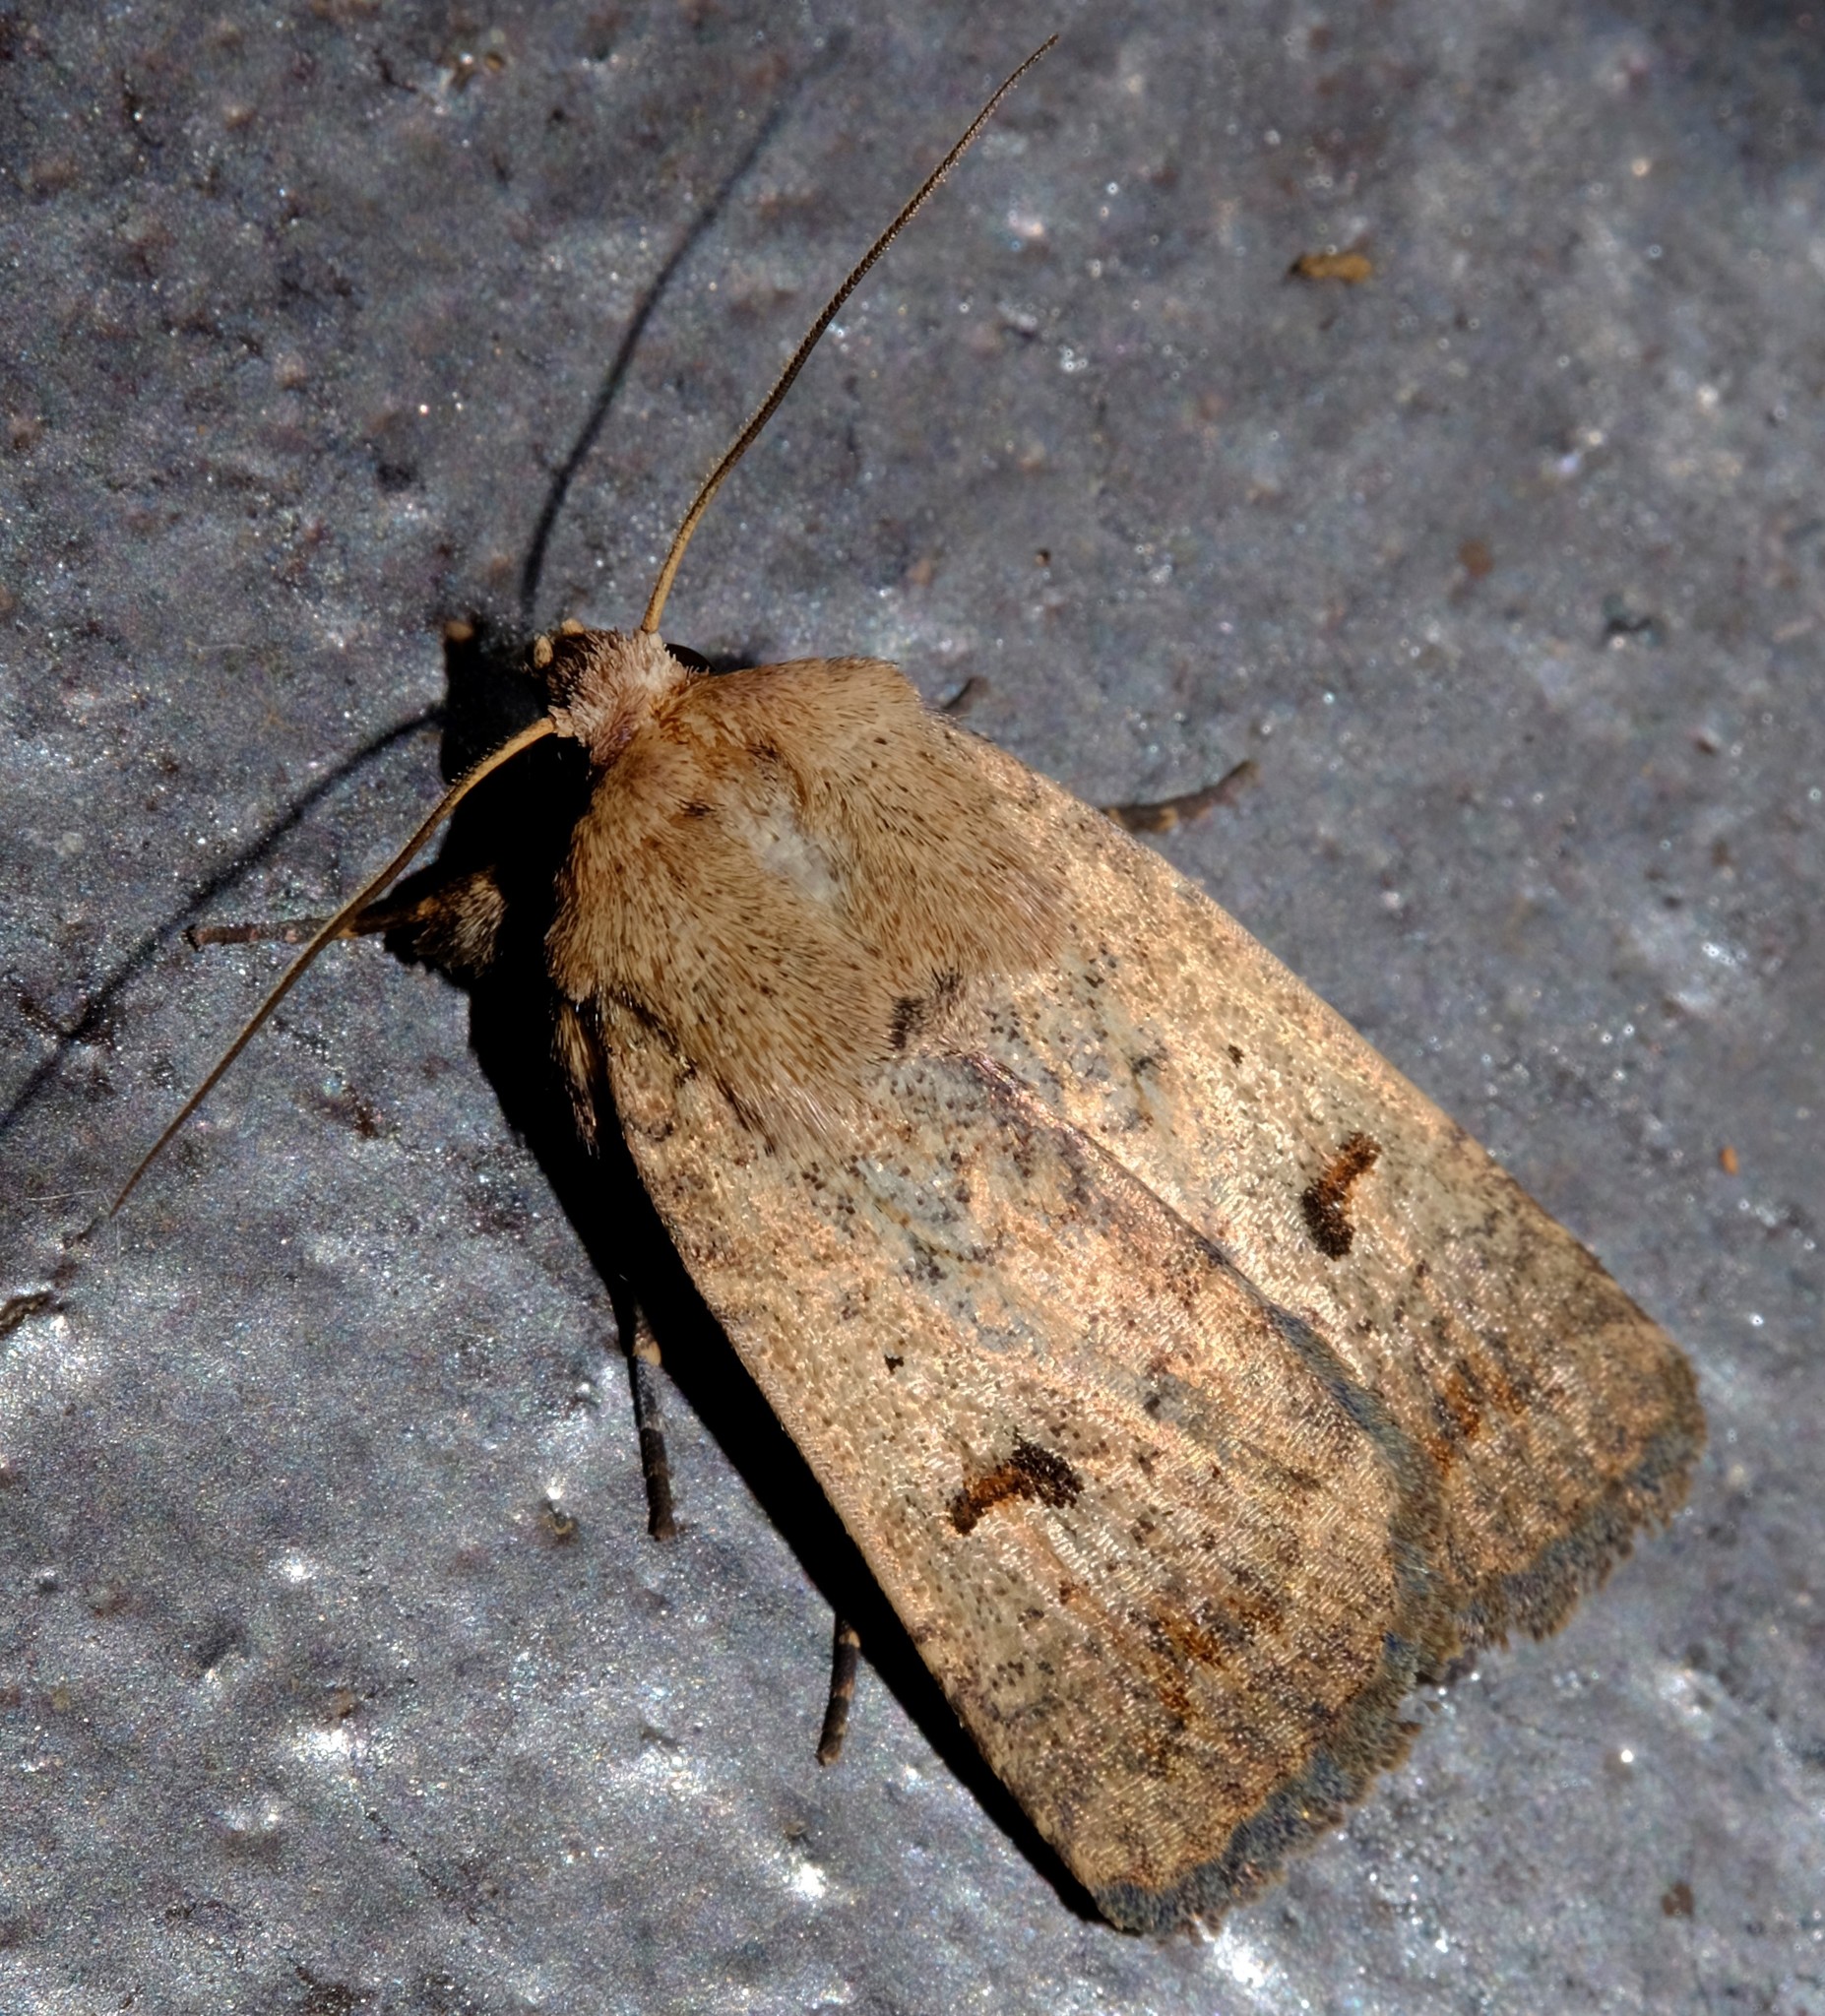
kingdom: Animalia
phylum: Arthropoda
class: Insecta
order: Lepidoptera
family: Noctuidae
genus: Proteuxoa
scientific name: Proteuxoa hypochalchis
